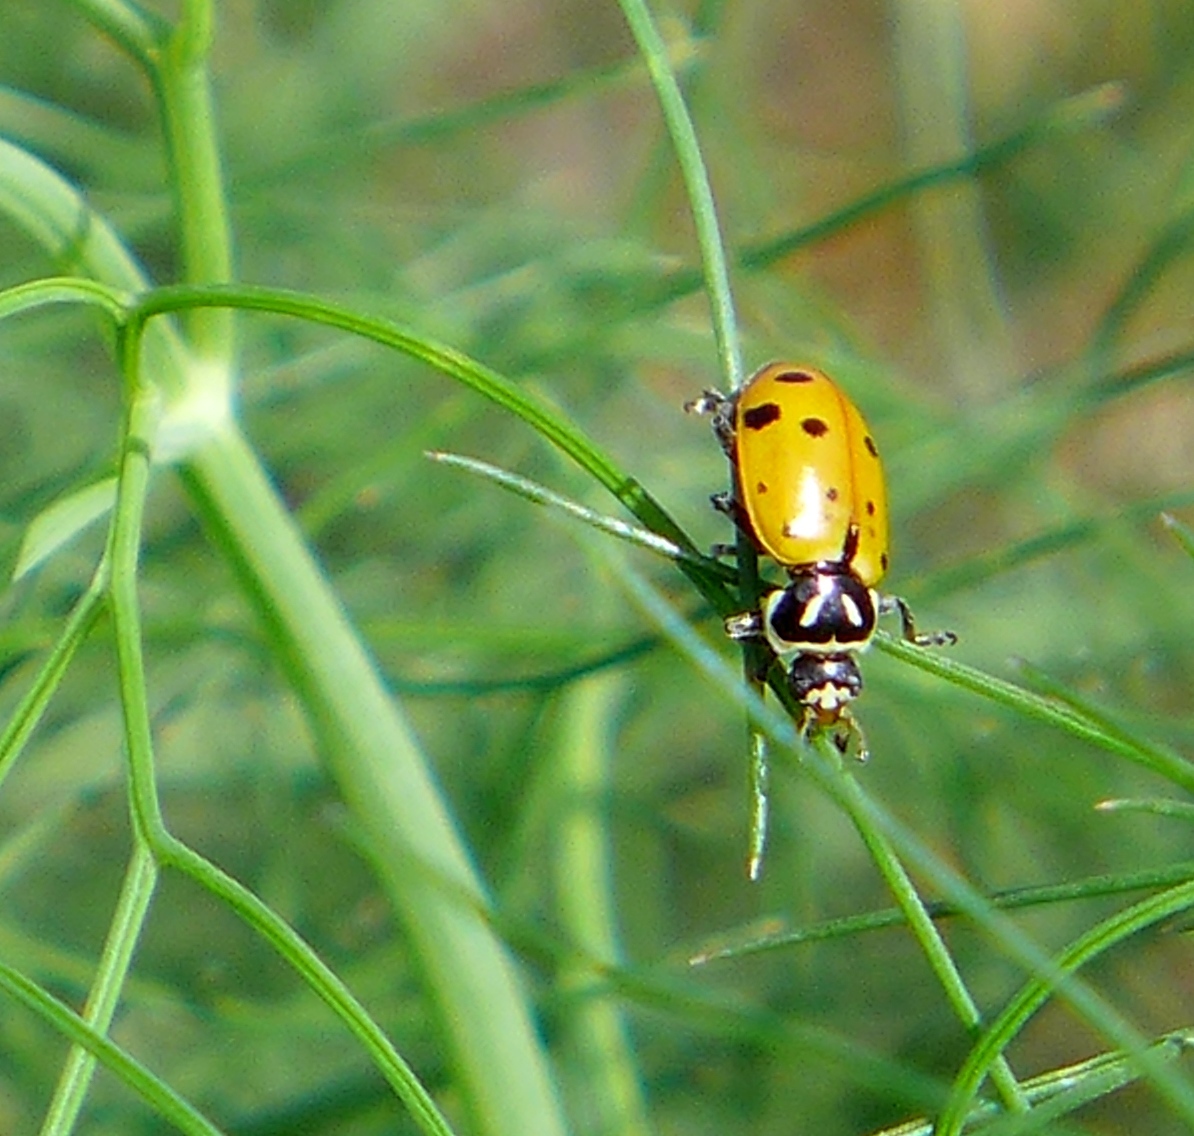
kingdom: Animalia
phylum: Arthropoda
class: Insecta
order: Coleoptera
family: Coccinellidae
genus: Hippodamia
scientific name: Hippodamia convergens
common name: Convergent lady beetle
